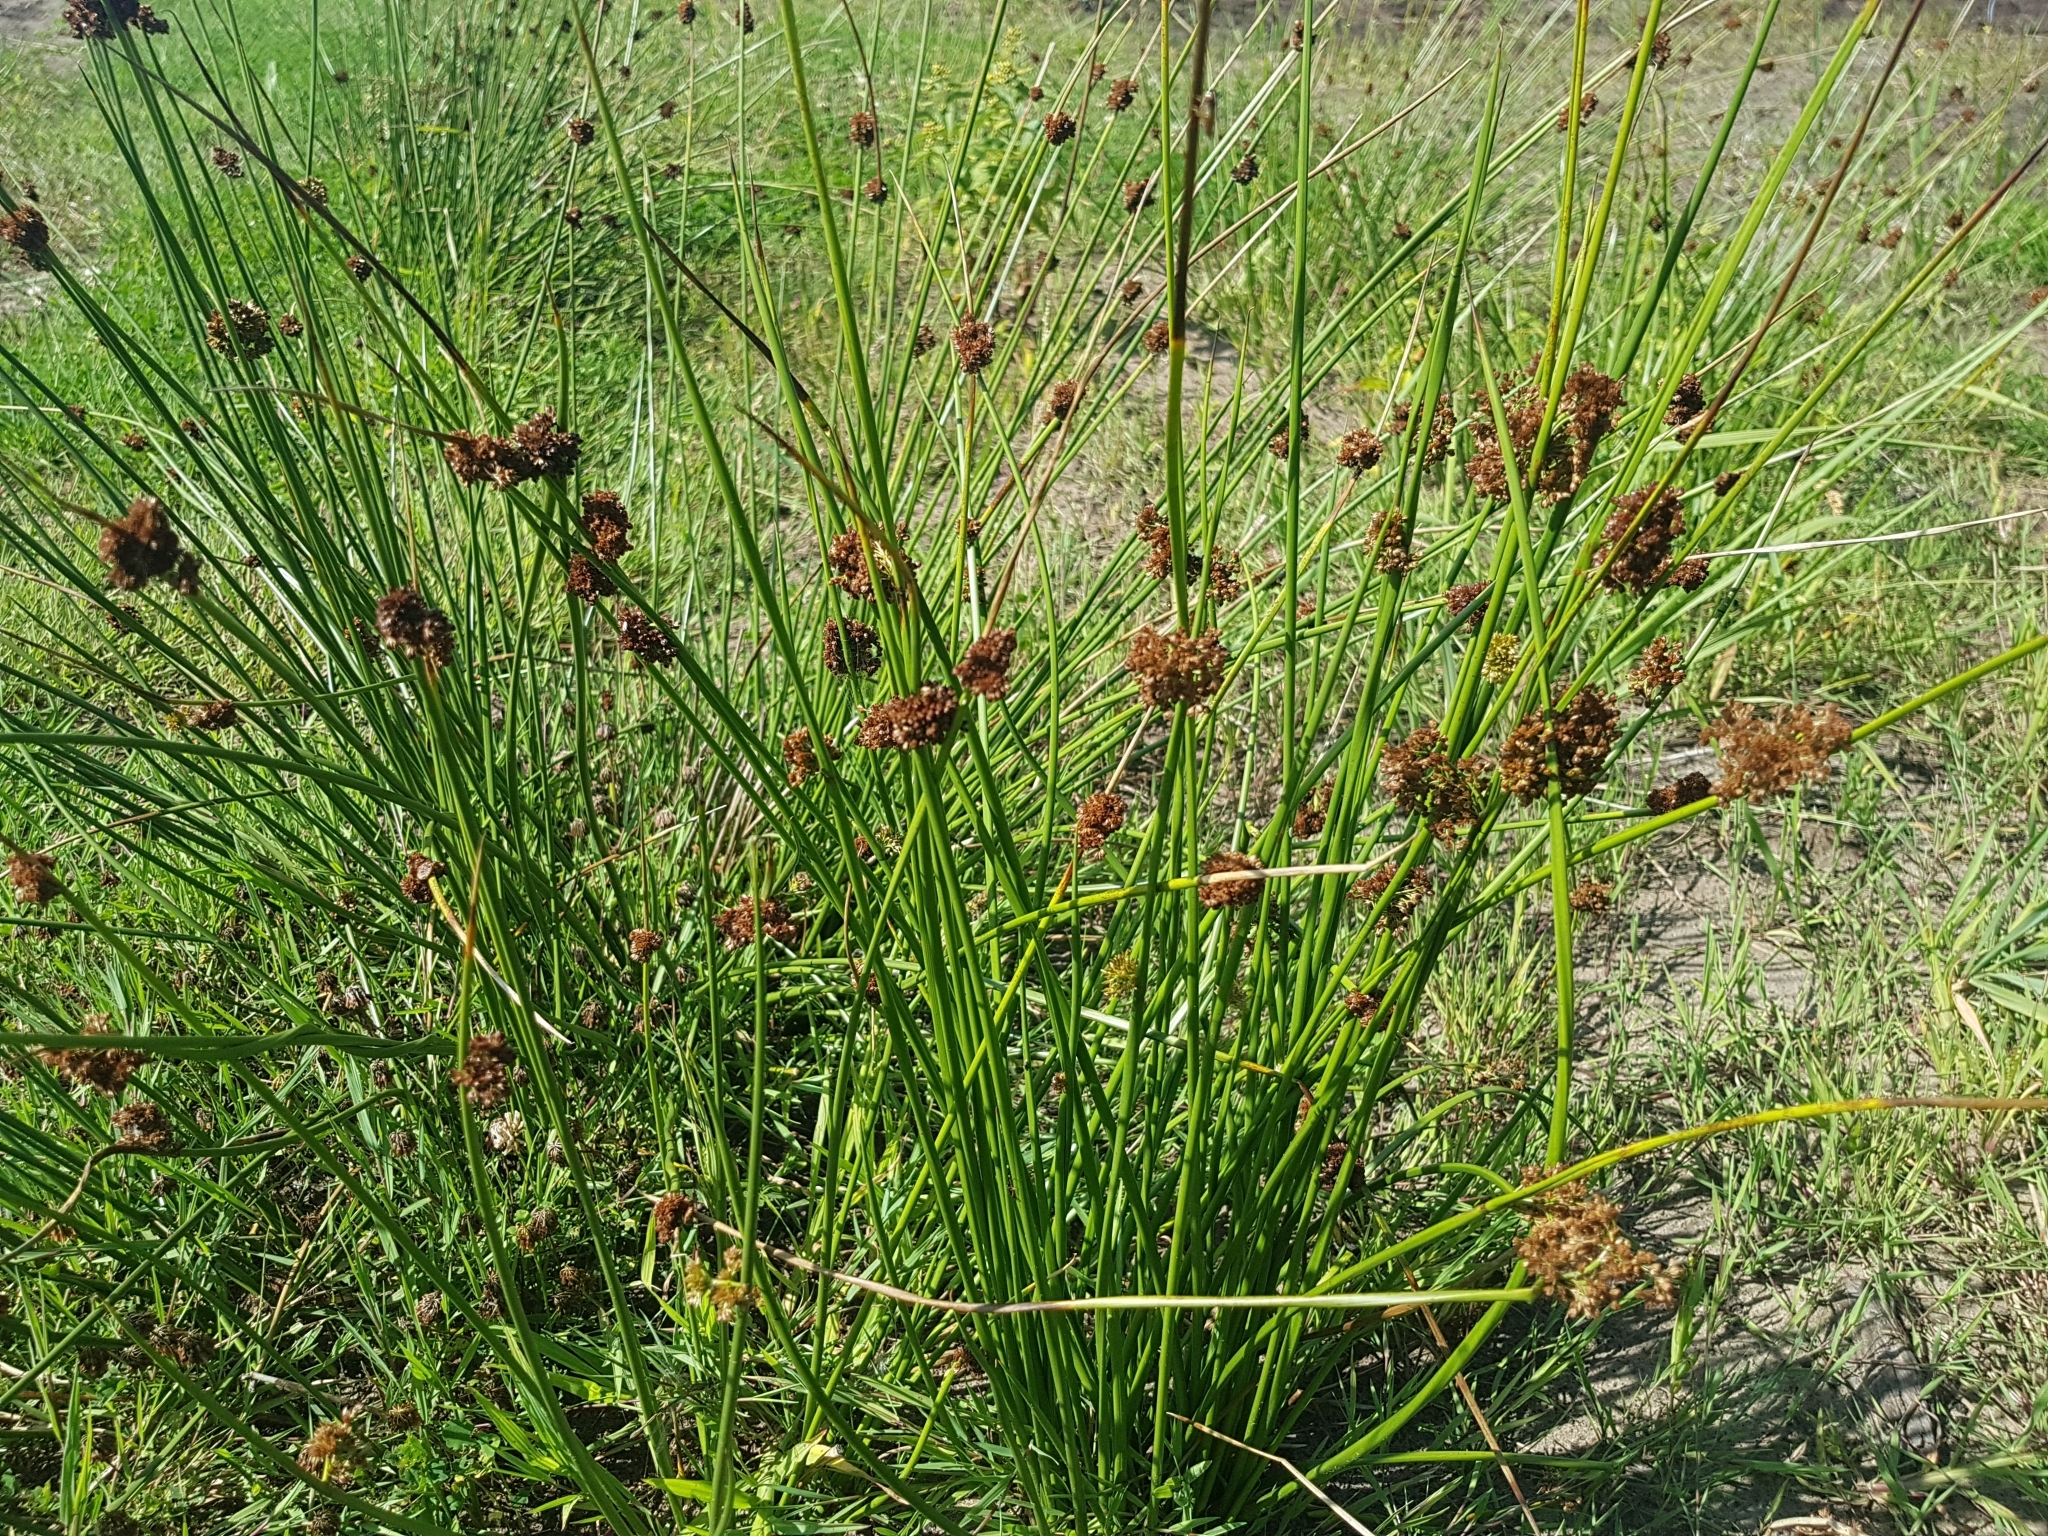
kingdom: Plantae
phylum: Tracheophyta
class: Liliopsida
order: Poales
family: Juncaceae
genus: Juncus
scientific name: Juncus effusus
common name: Soft rush
